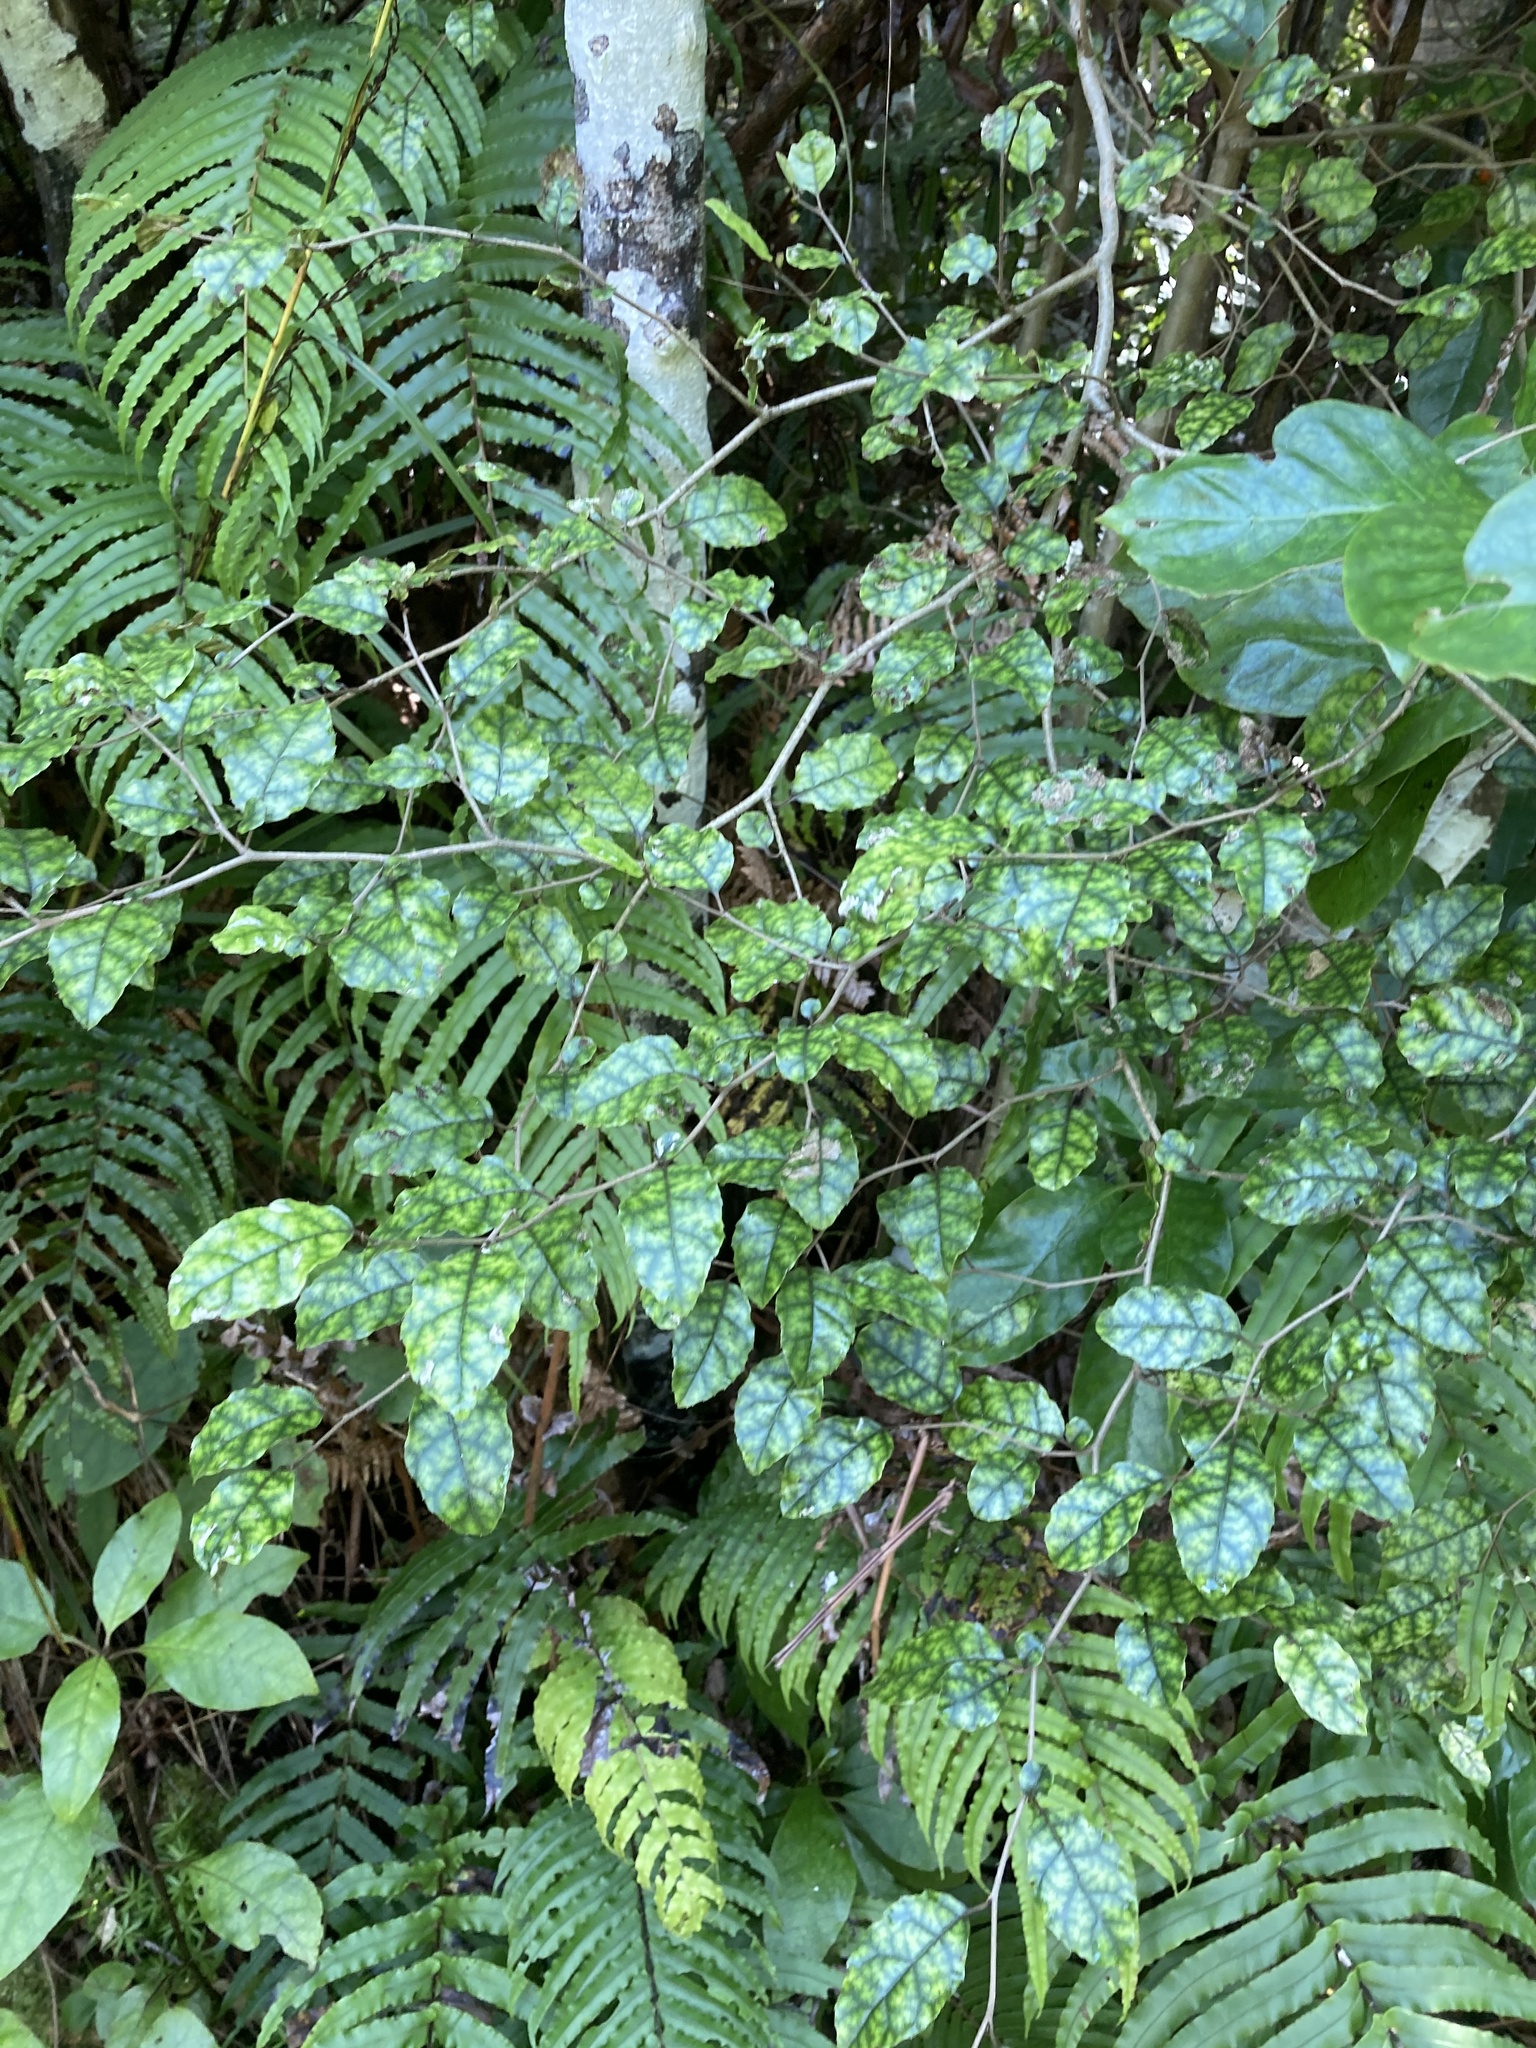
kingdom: Plantae
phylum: Tracheophyta
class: Magnoliopsida
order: Asterales
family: Rousseaceae
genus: Carpodetus
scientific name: Carpodetus serratus
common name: White mapau
